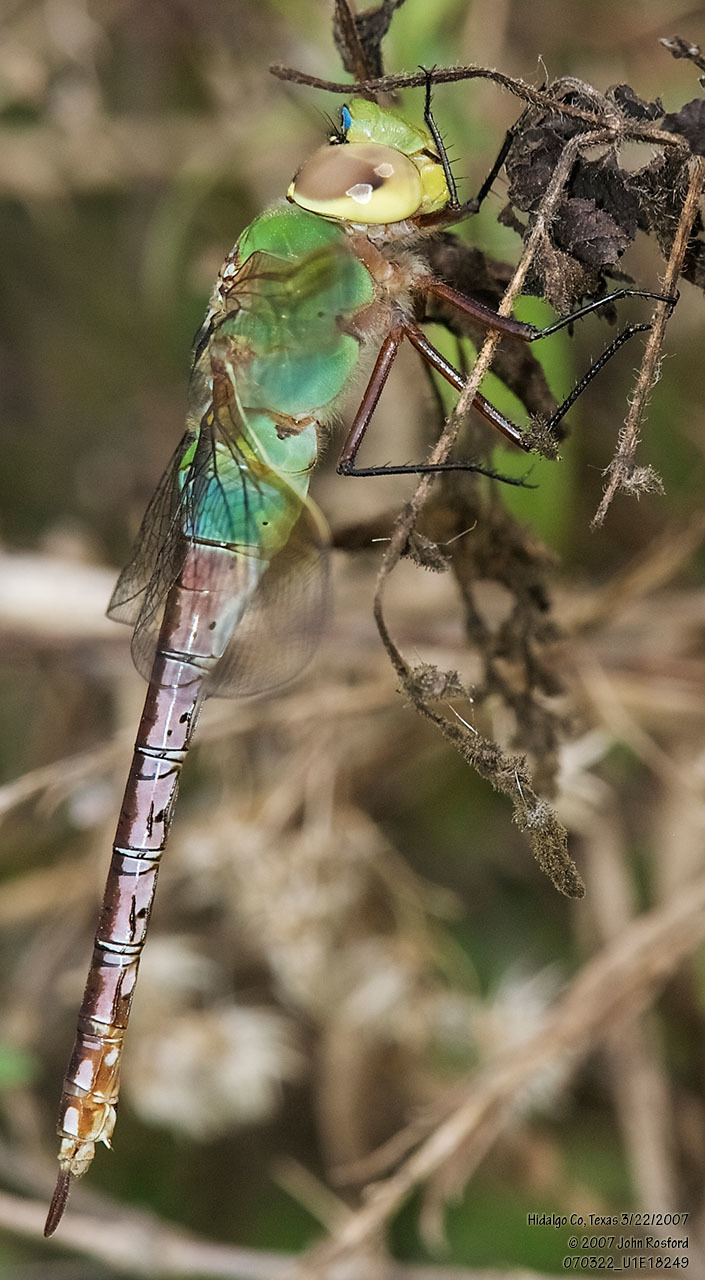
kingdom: Animalia
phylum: Arthropoda
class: Insecta
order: Odonata
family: Aeshnidae
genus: Anax
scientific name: Anax junius
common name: Common green darner
